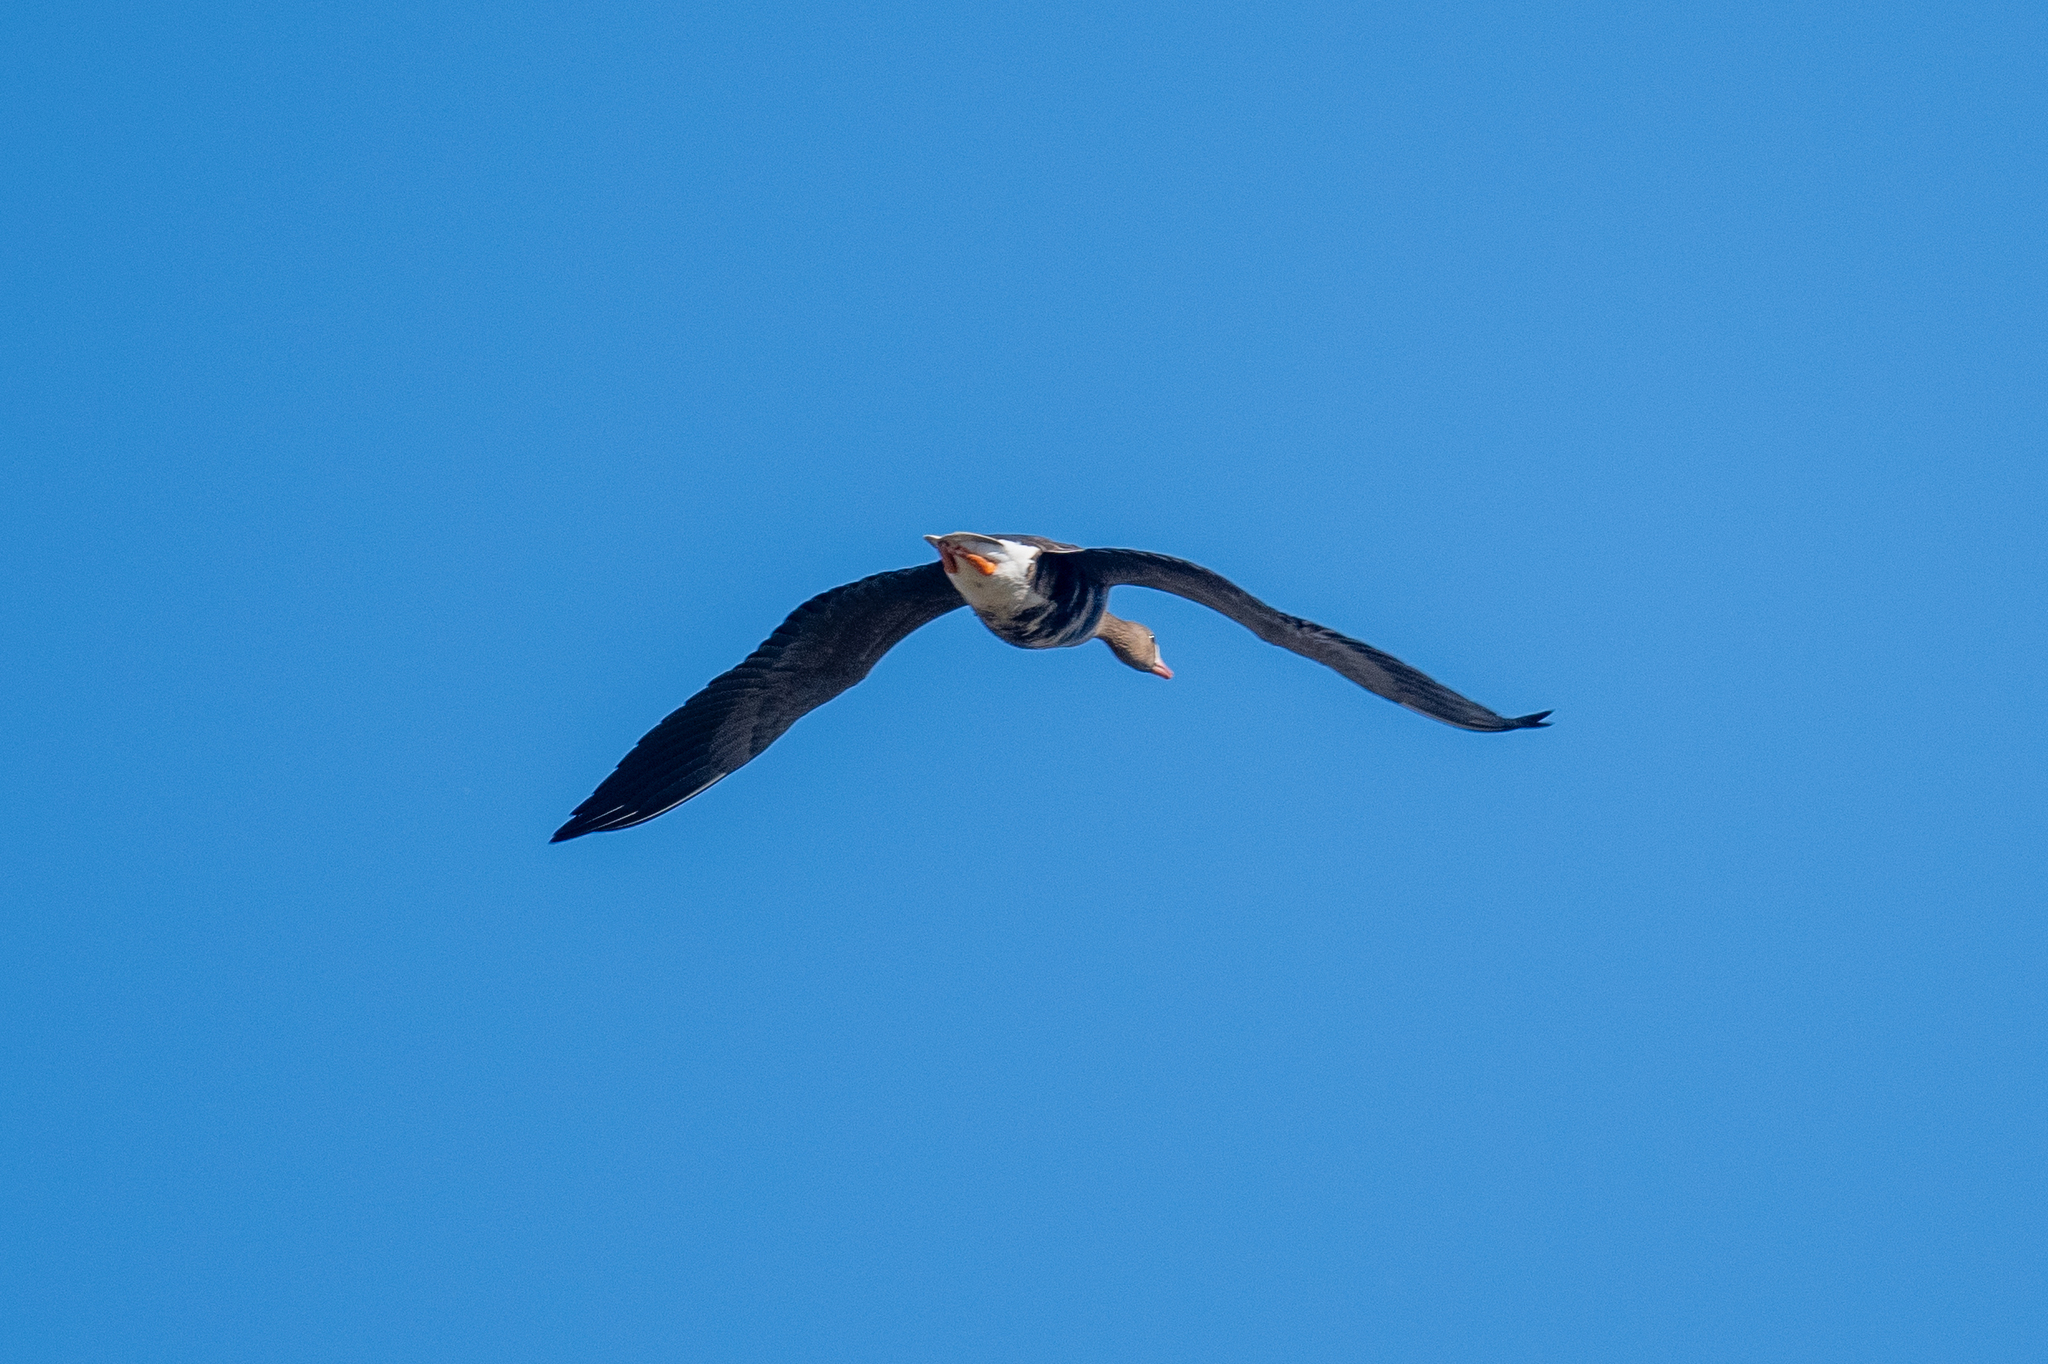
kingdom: Animalia
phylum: Chordata
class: Aves
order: Anseriformes
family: Anatidae
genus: Anser
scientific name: Anser albifrons
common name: Greater white-fronted goose
